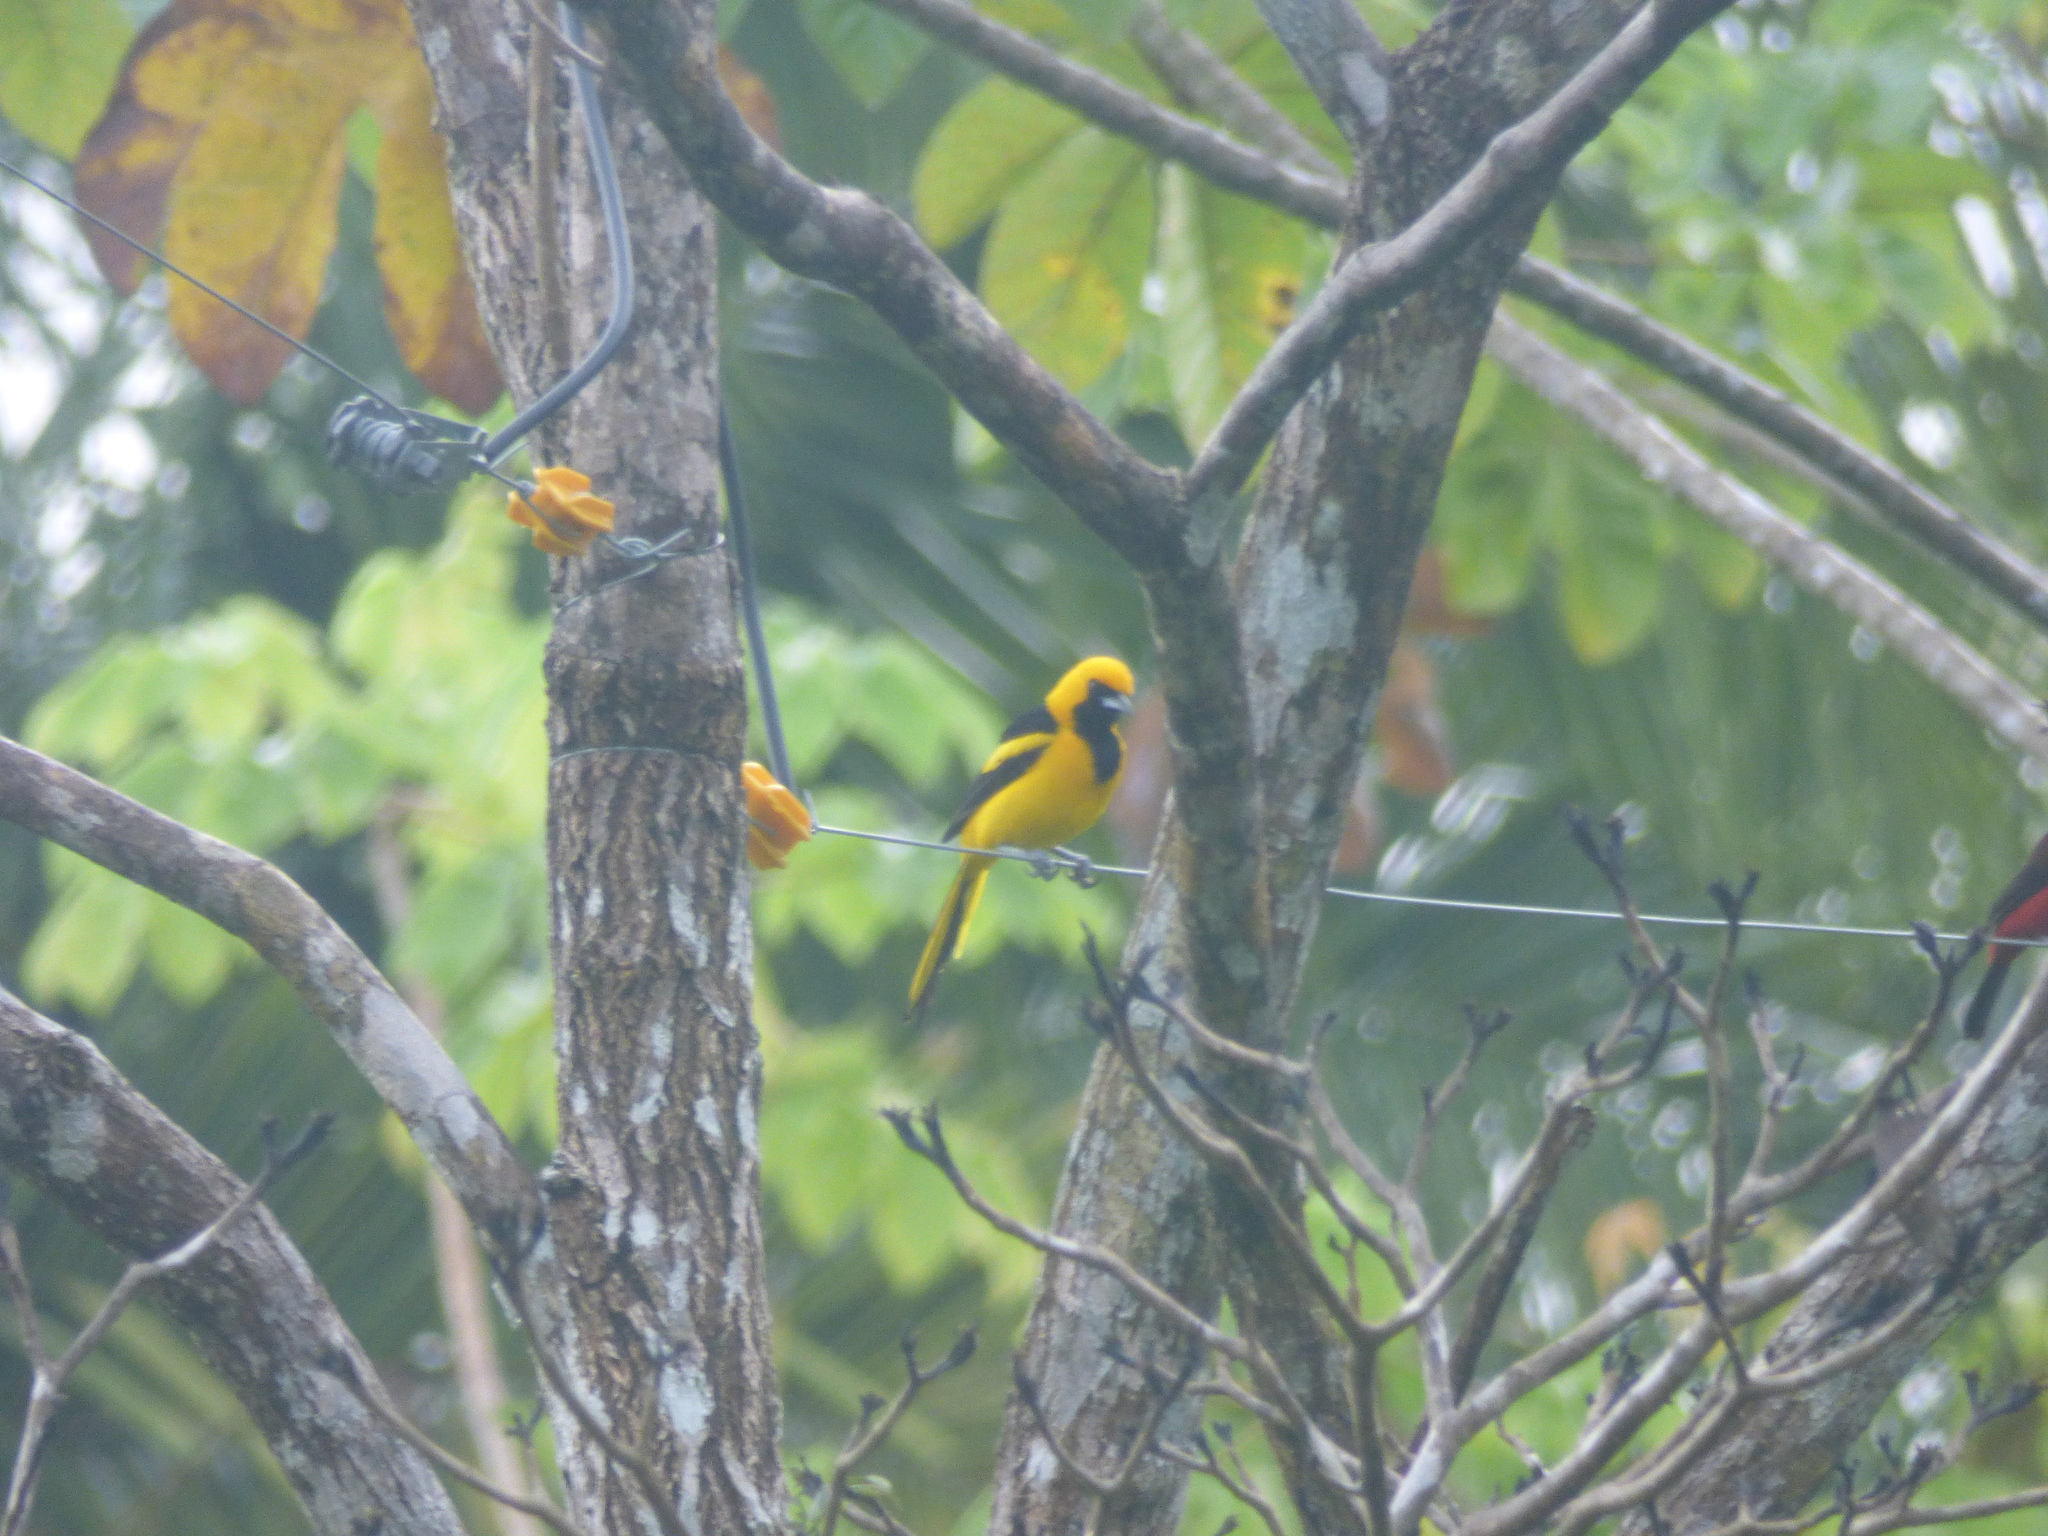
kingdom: Animalia
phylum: Chordata
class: Aves
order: Passeriformes
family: Icteridae
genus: Icterus
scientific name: Icterus mesomelas
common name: Yellow-tailed oriole
